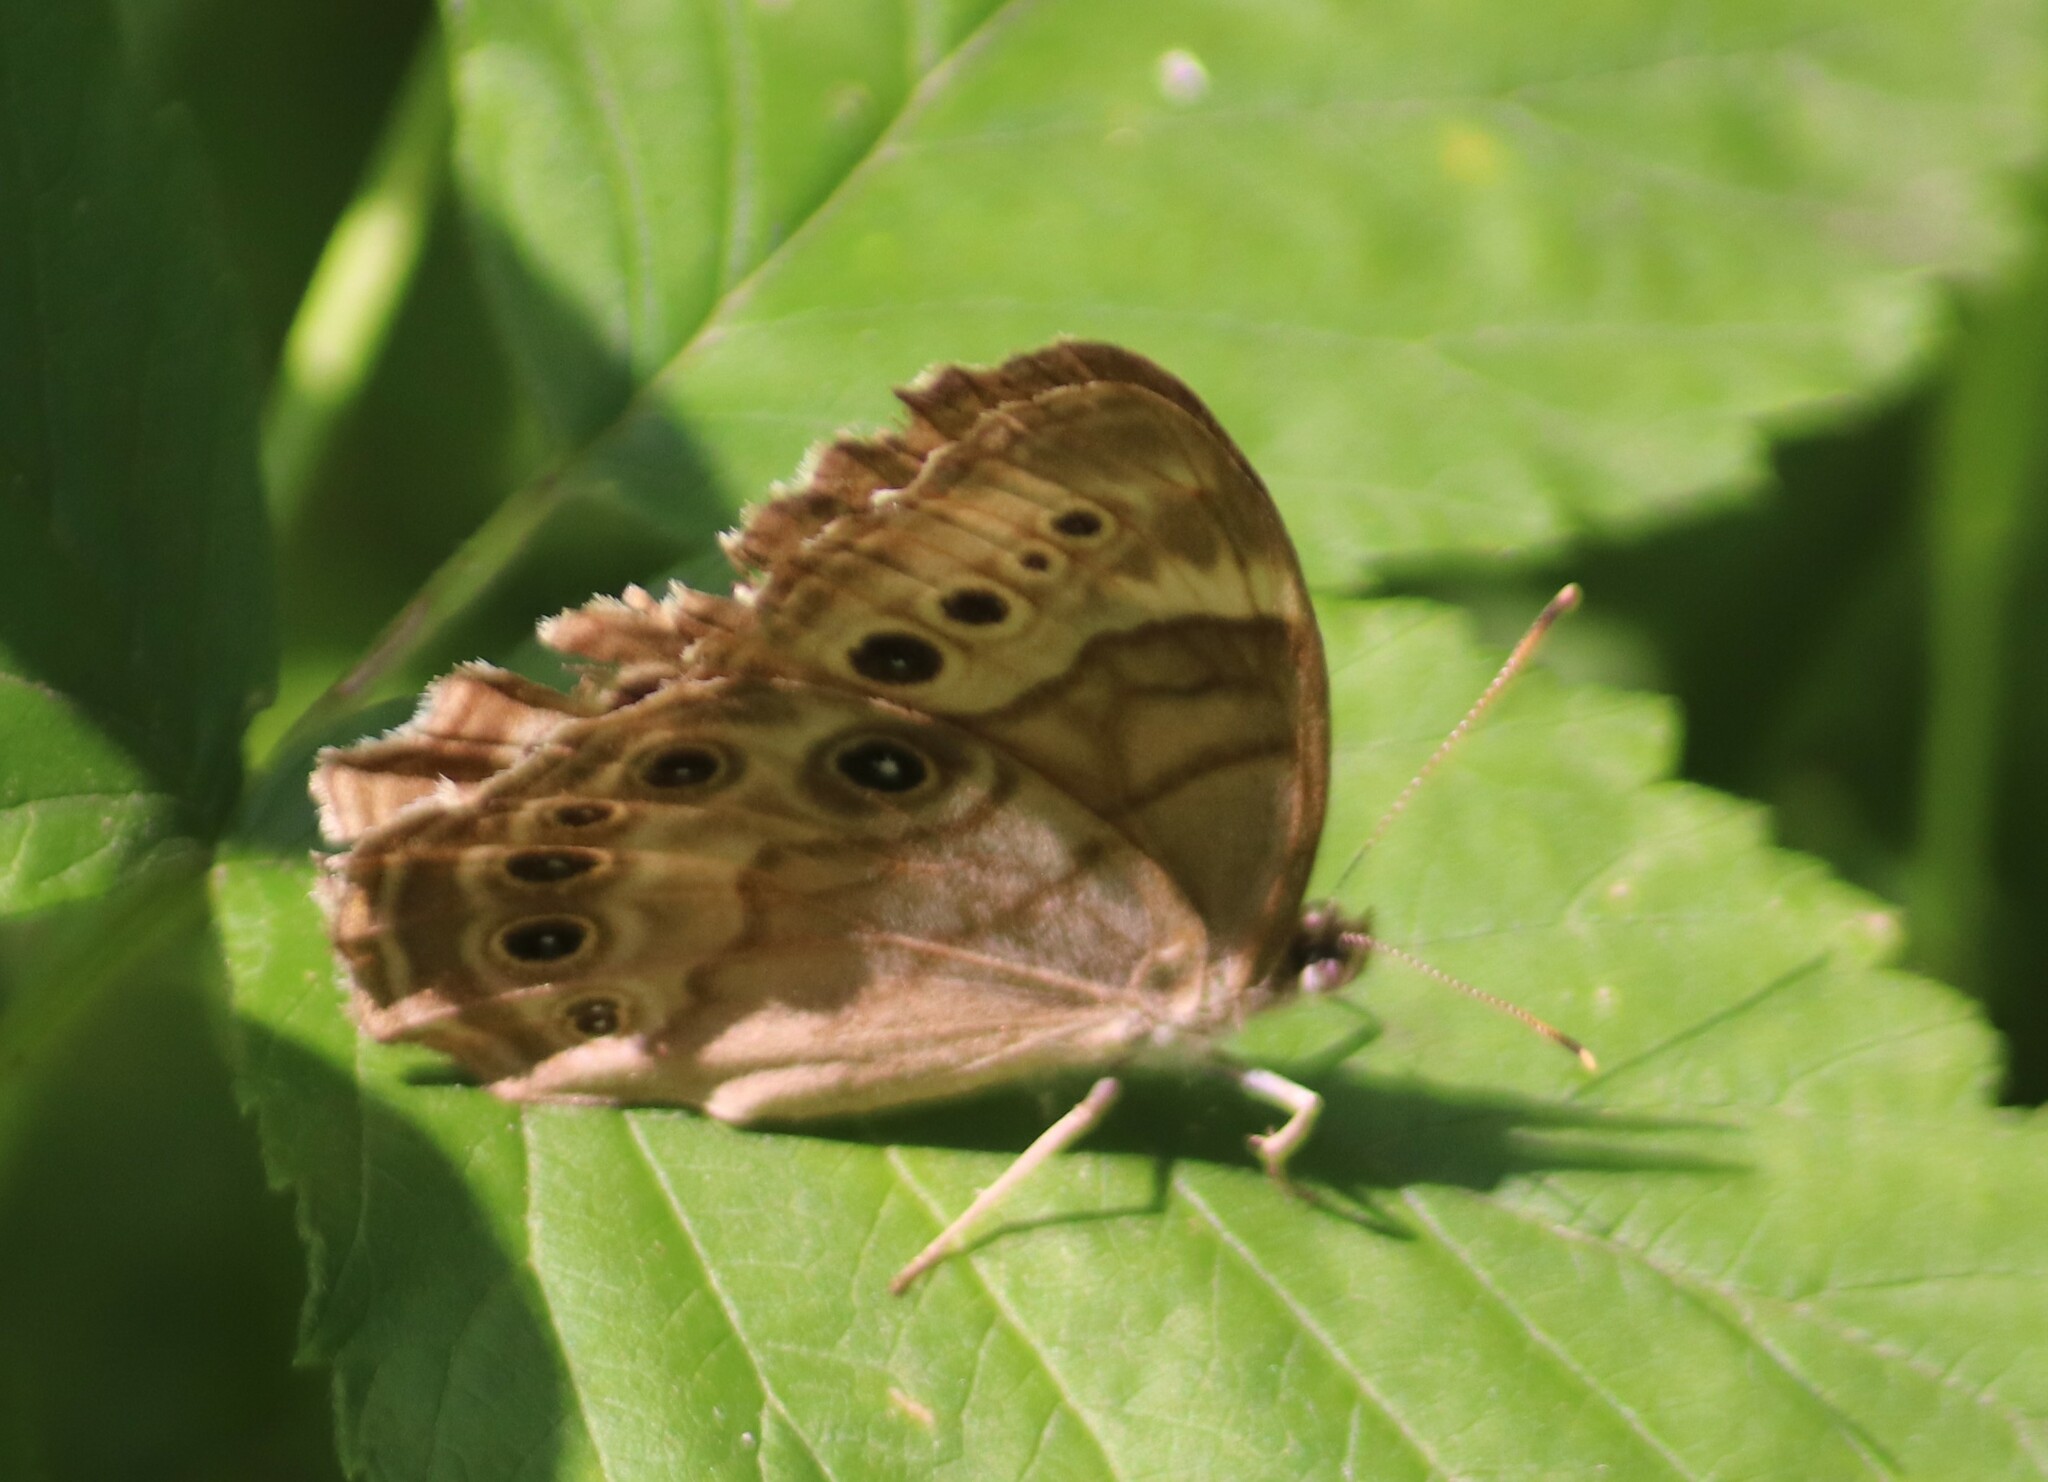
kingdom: Animalia
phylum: Arthropoda
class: Insecta
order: Lepidoptera
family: Nymphalidae
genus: Lethe
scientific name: Lethe anthedon
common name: Northern pearly-eye
